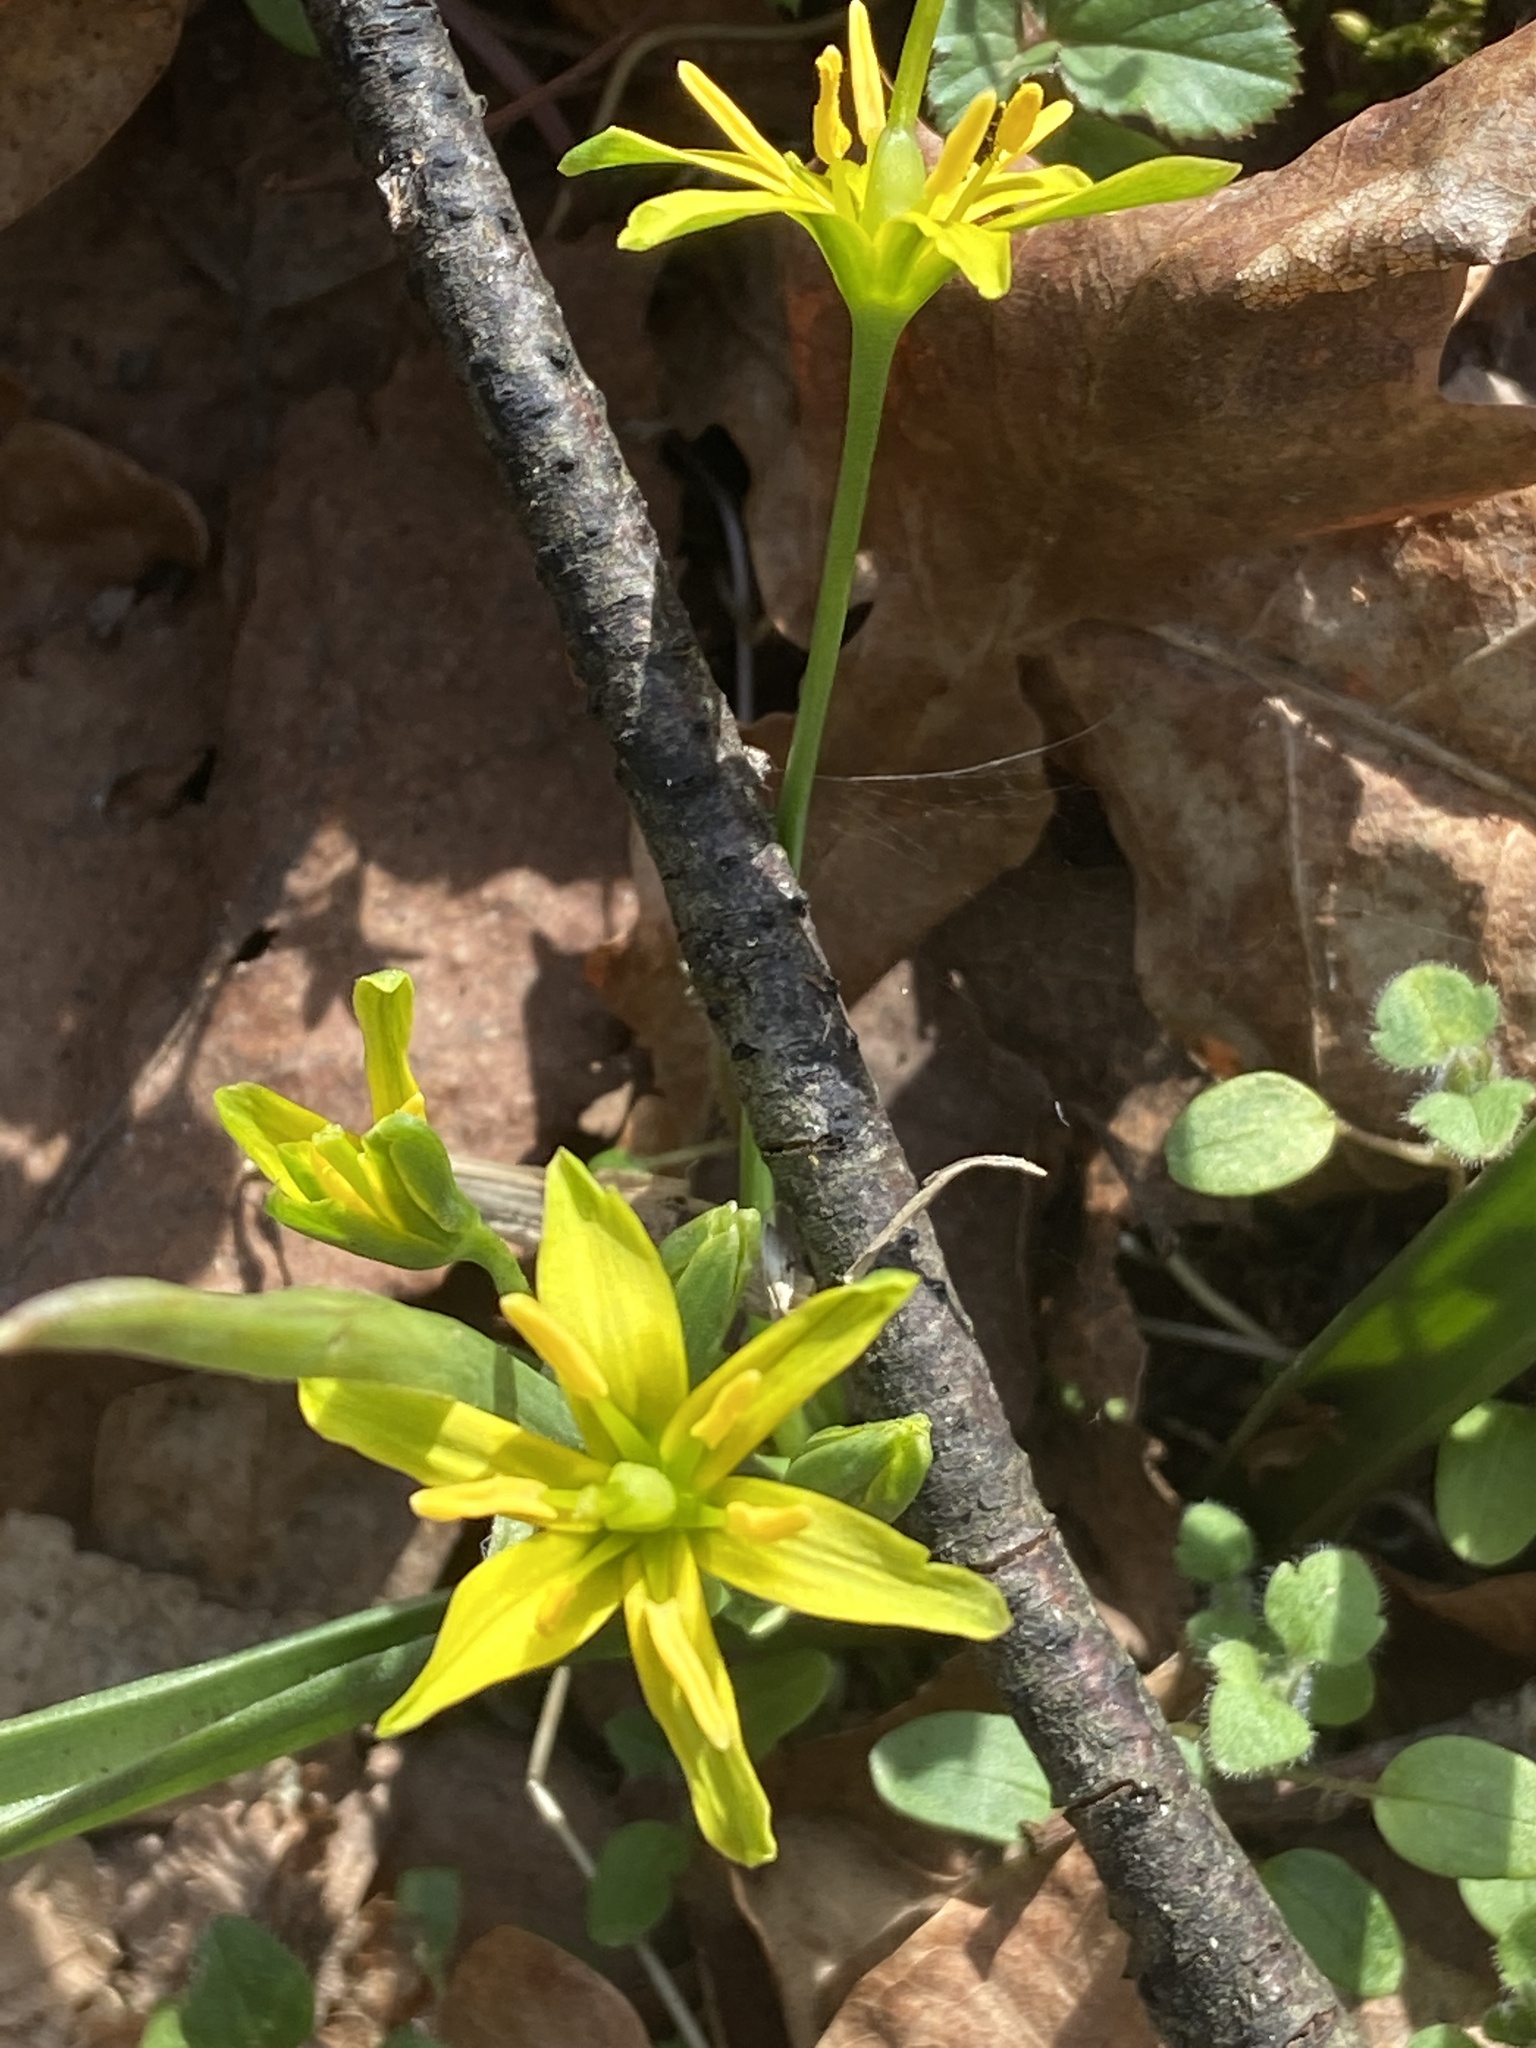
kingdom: Plantae
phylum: Tracheophyta
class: Liliopsida
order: Liliales
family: Liliaceae
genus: Gagea
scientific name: Gagea lutea
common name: Yellow star-of-bethlehem
